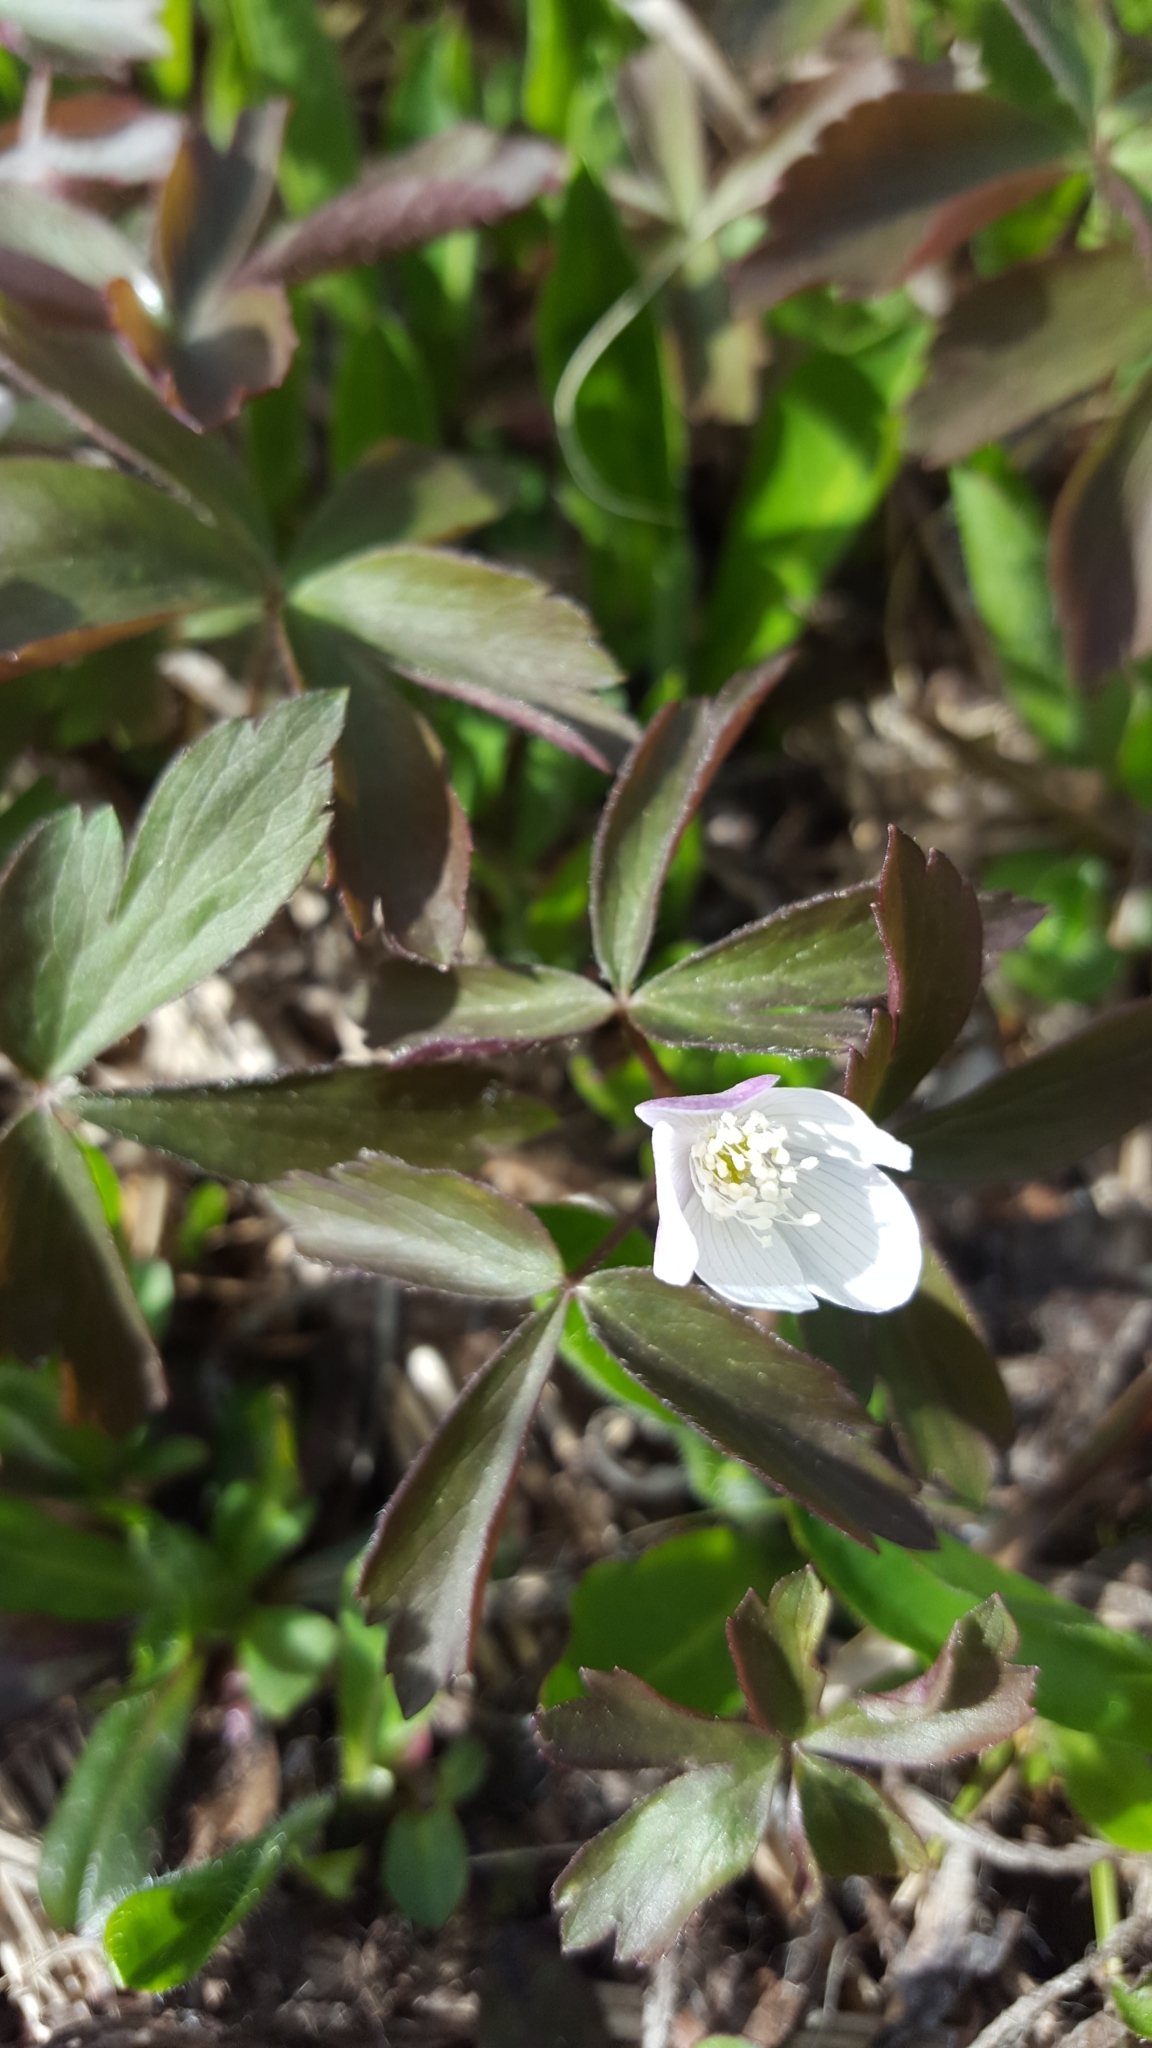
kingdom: Plantae
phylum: Tracheophyta
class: Magnoliopsida
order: Ranunculales
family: Ranunculaceae
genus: Anemone
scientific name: Anemone quinquefolia
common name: Wood anemone
